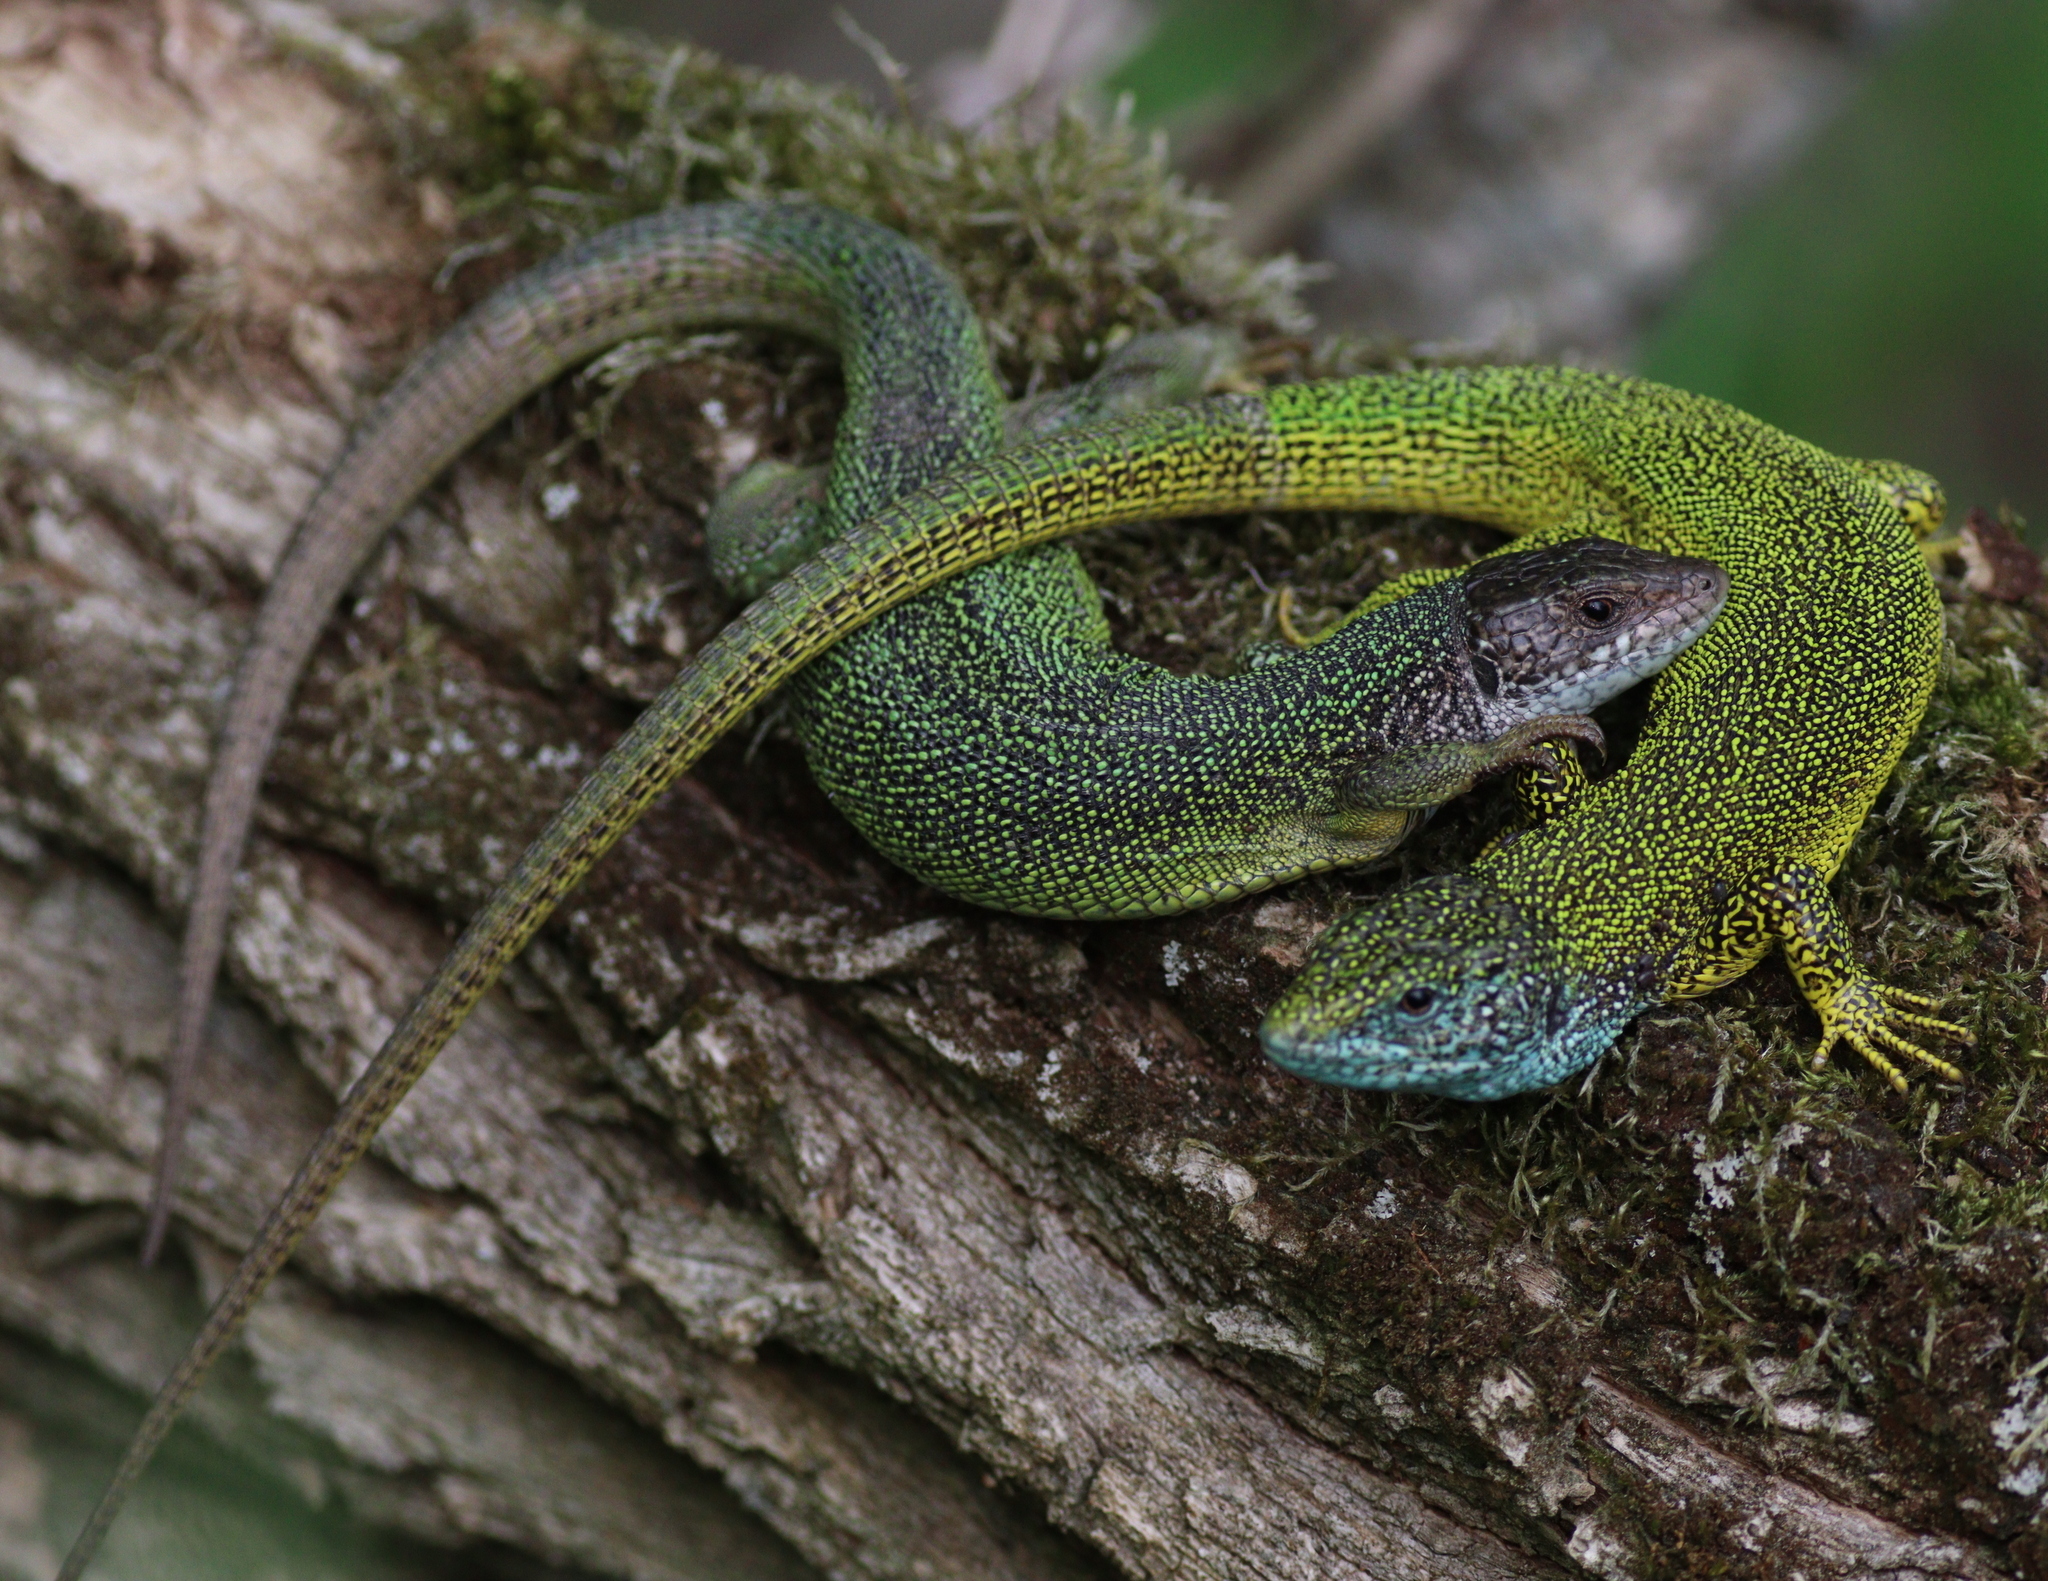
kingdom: Animalia
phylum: Chordata
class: Squamata
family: Lacertidae
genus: Lacerta
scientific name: Lacerta viridis
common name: European green lizard
